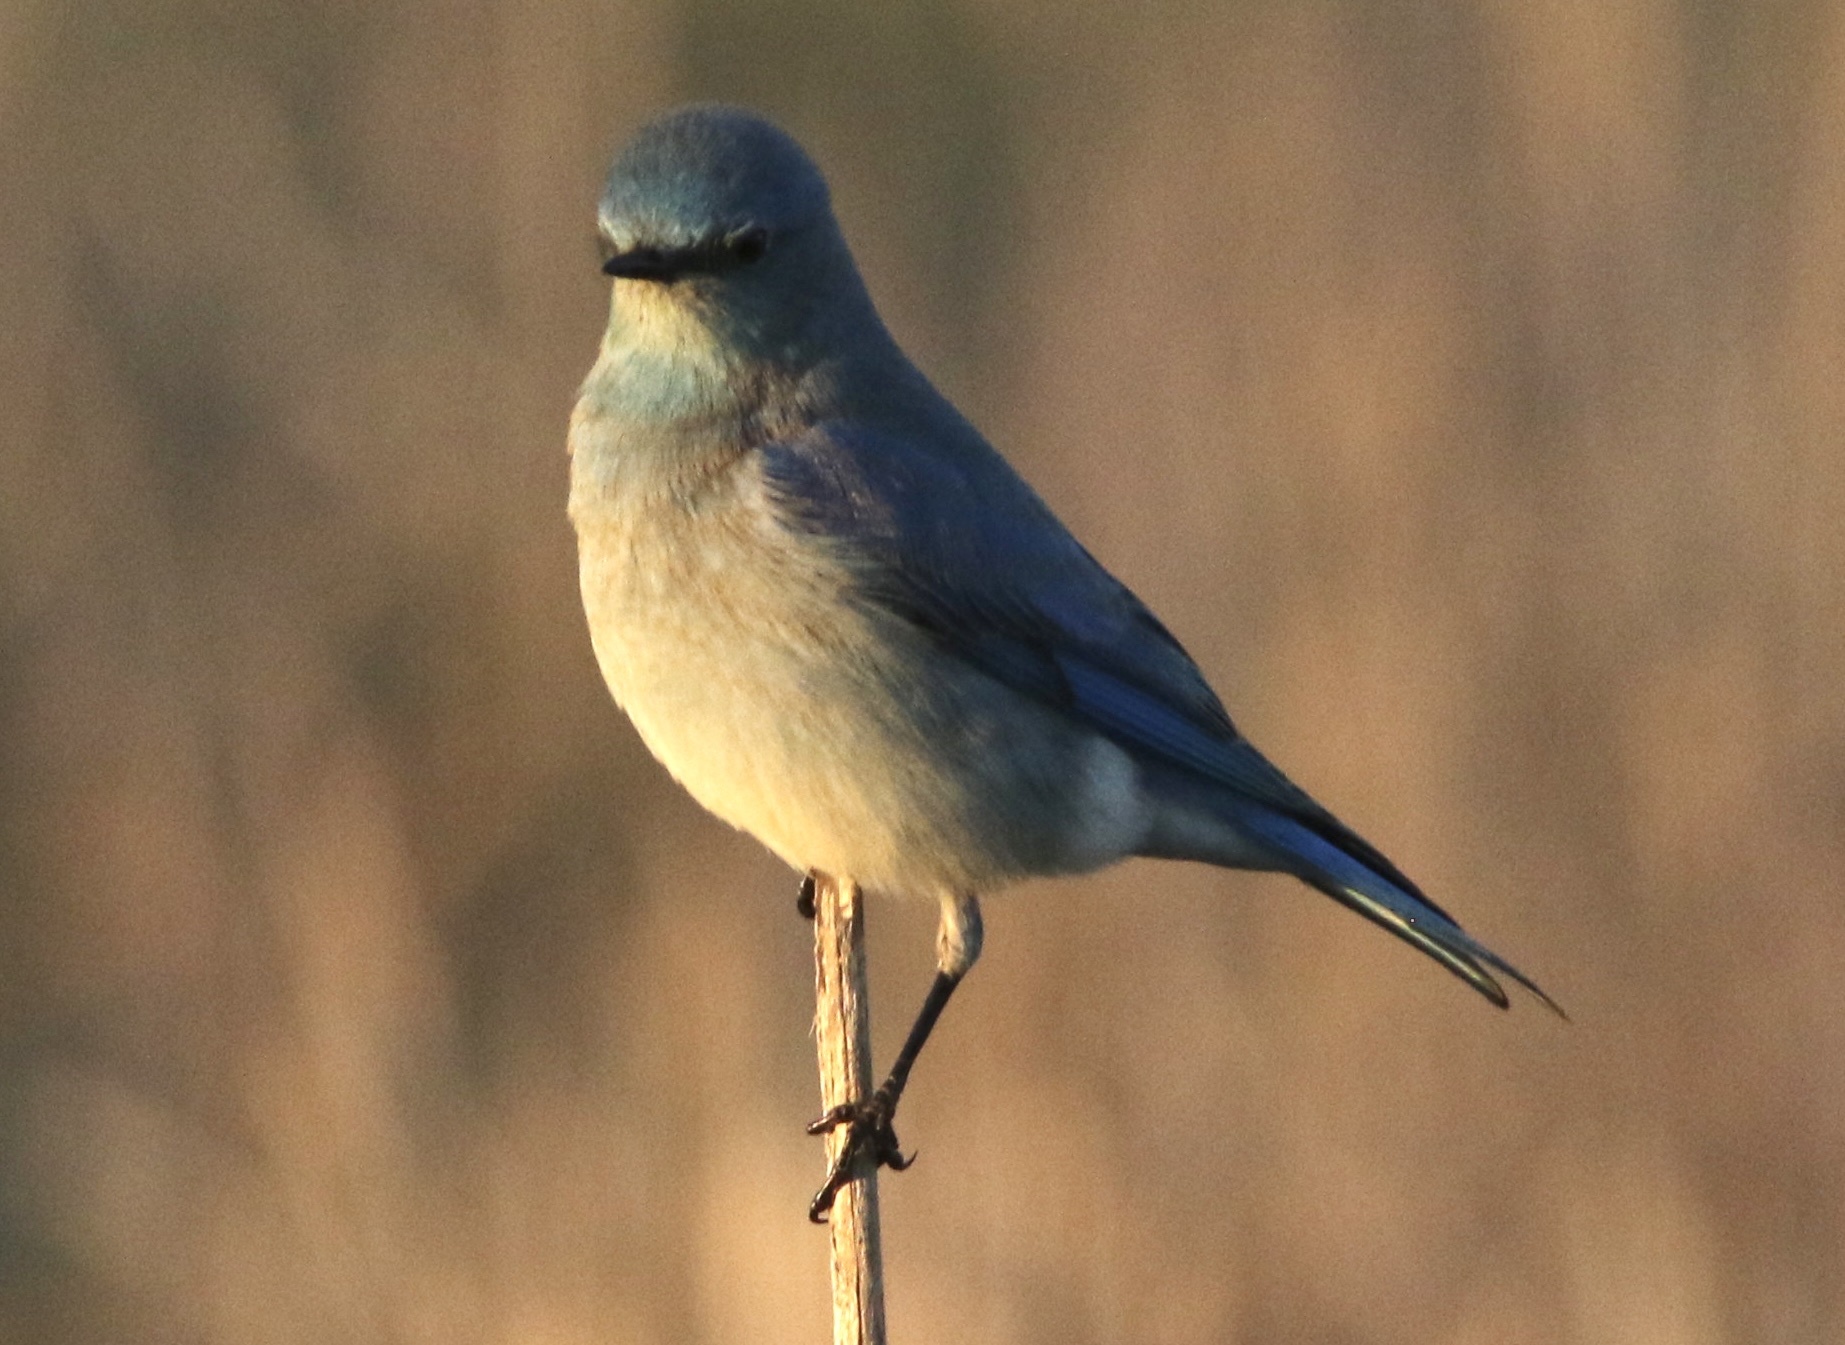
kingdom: Animalia
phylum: Chordata
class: Aves
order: Passeriformes
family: Turdidae
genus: Sialia
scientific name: Sialia currucoides
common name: Mountain bluebird
